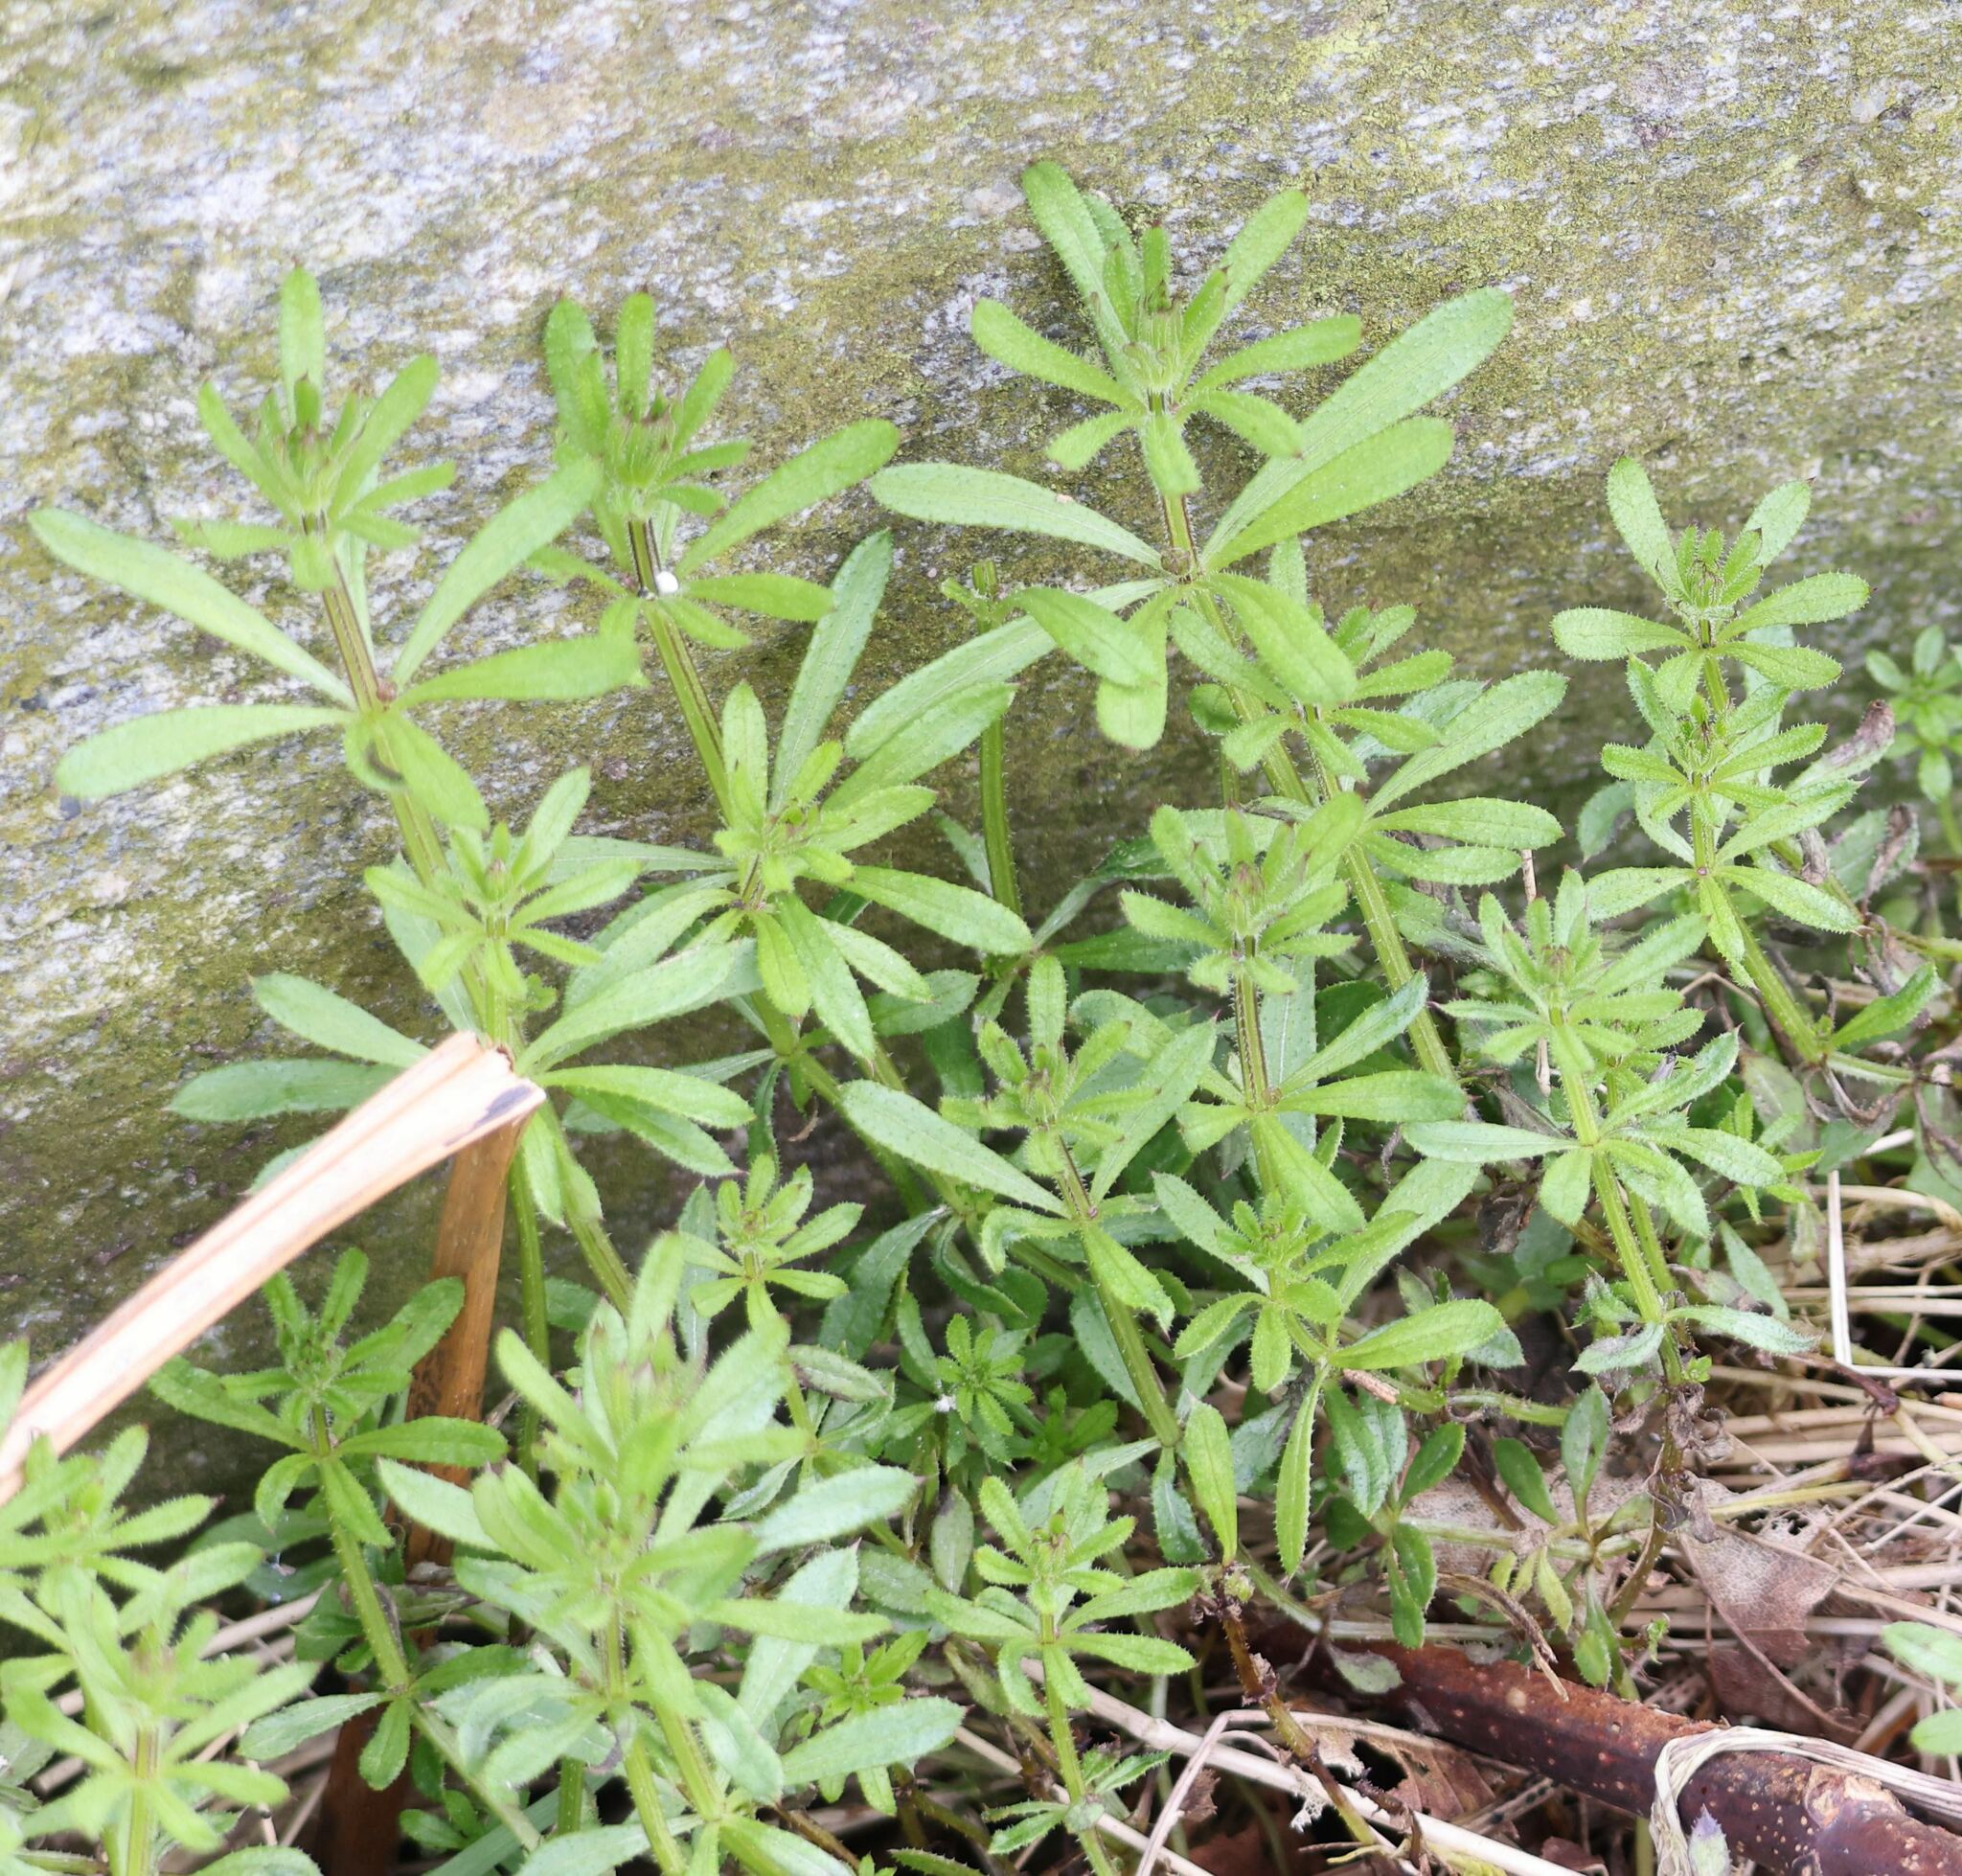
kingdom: Plantae
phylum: Tracheophyta
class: Magnoliopsida
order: Gentianales
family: Rubiaceae
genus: Galium
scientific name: Galium aparine
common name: Cleavers
